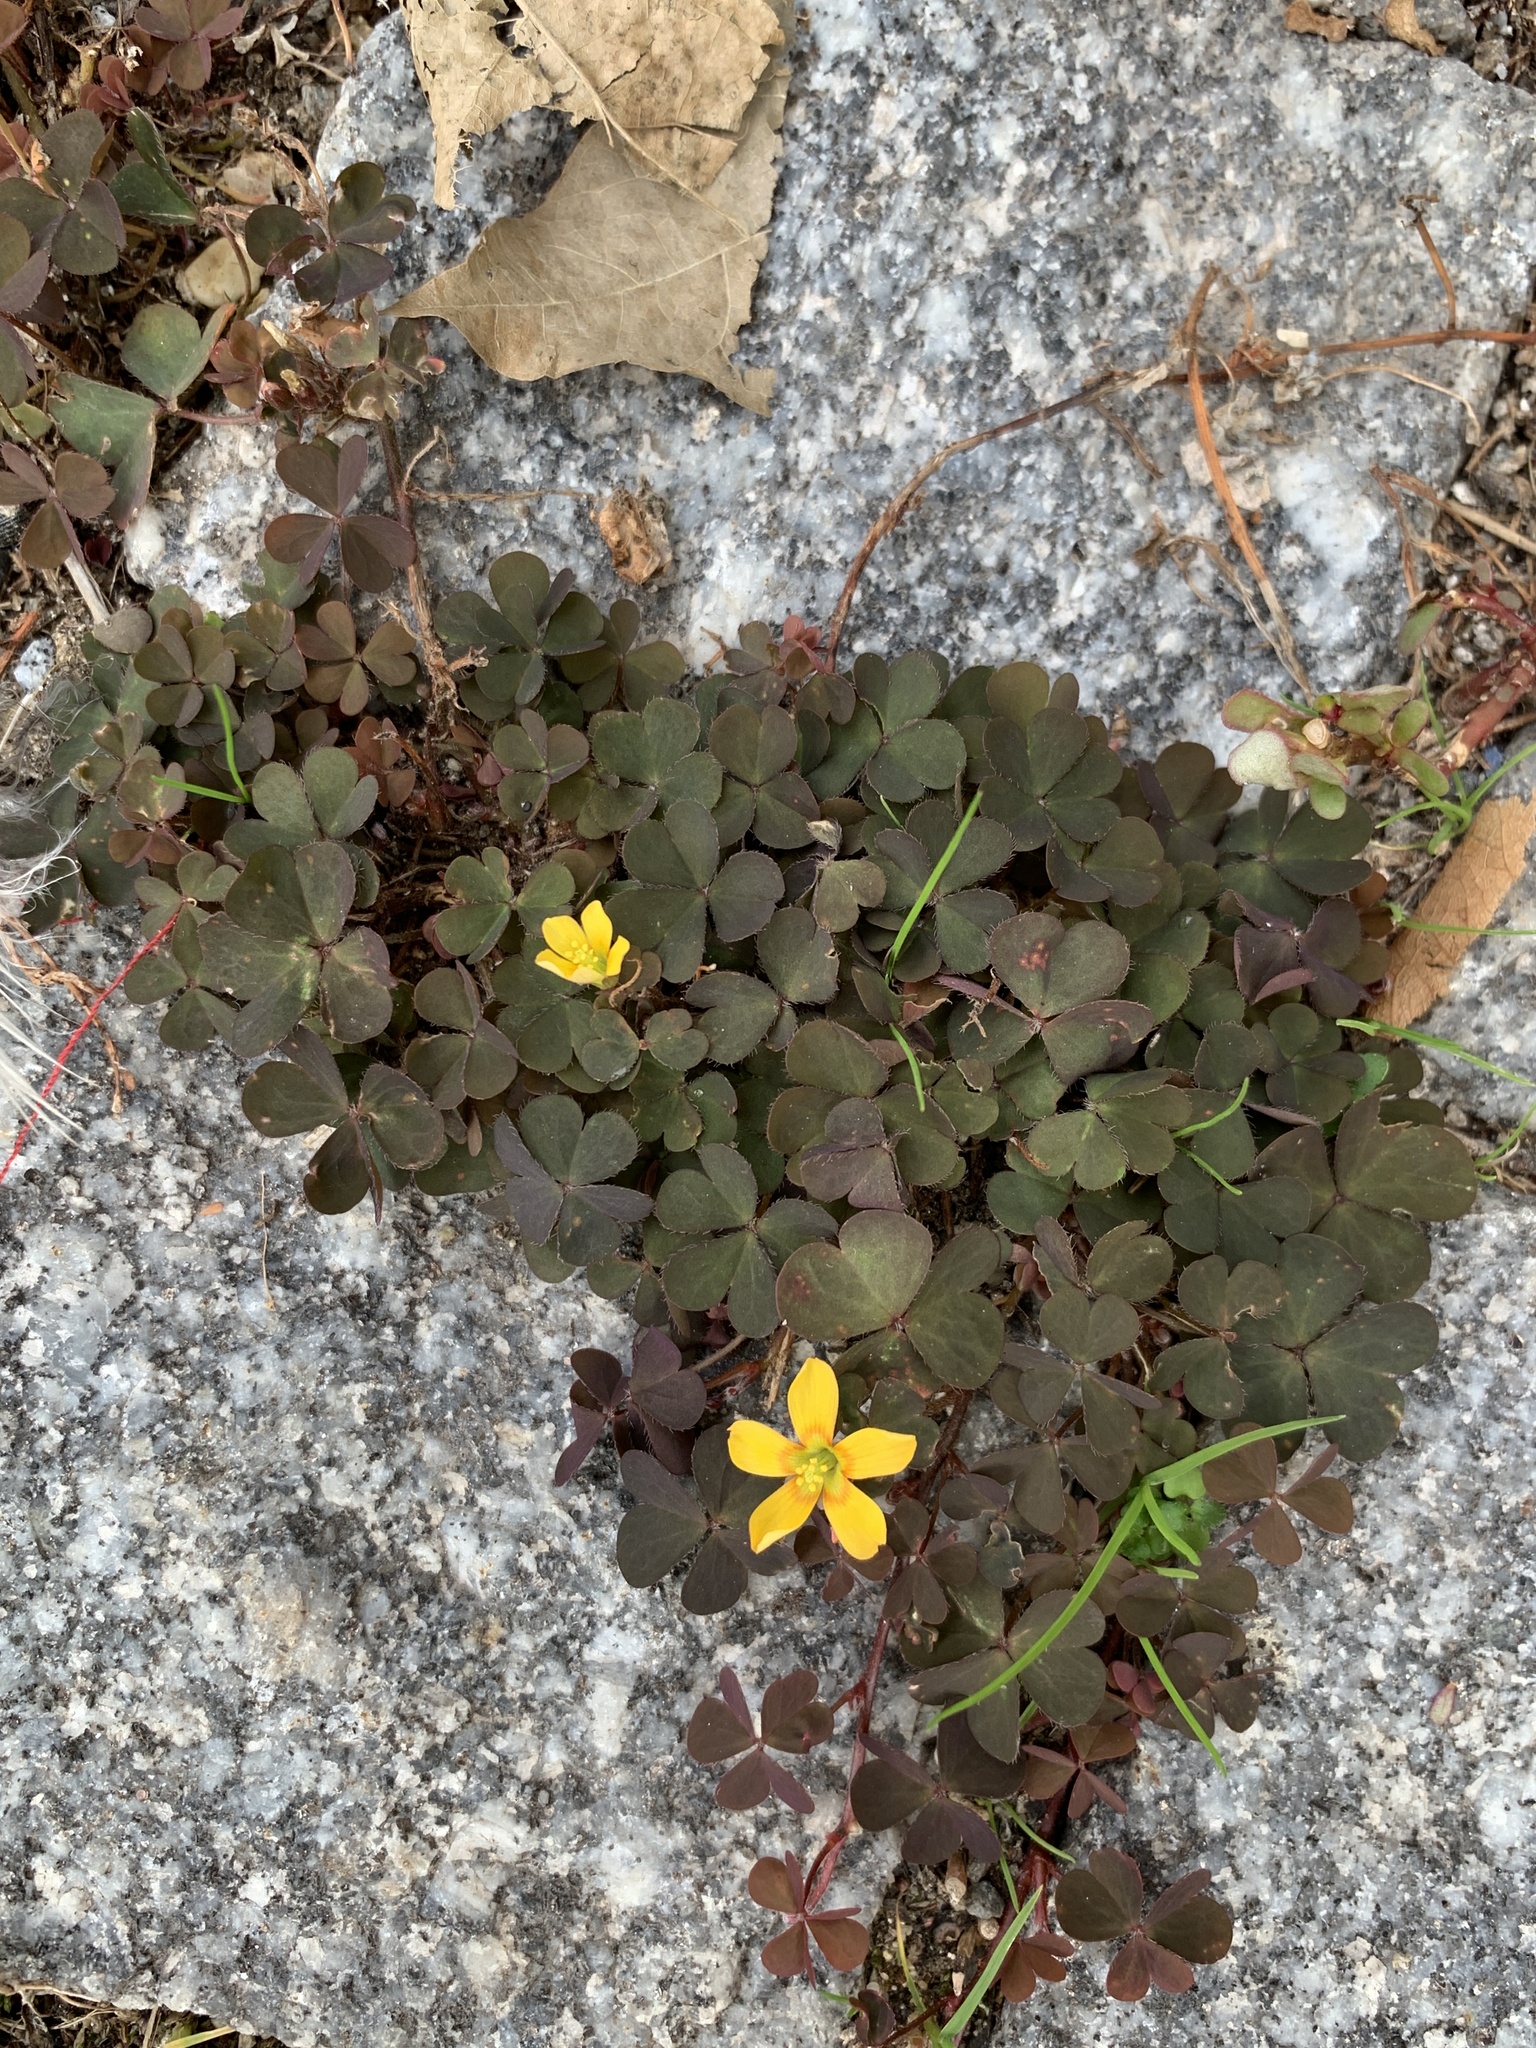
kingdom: Plantae
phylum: Tracheophyta
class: Magnoliopsida
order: Oxalidales
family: Oxalidaceae
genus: Oxalis
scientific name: Oxalis corniculata
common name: Procumbent yellow-sorrel
